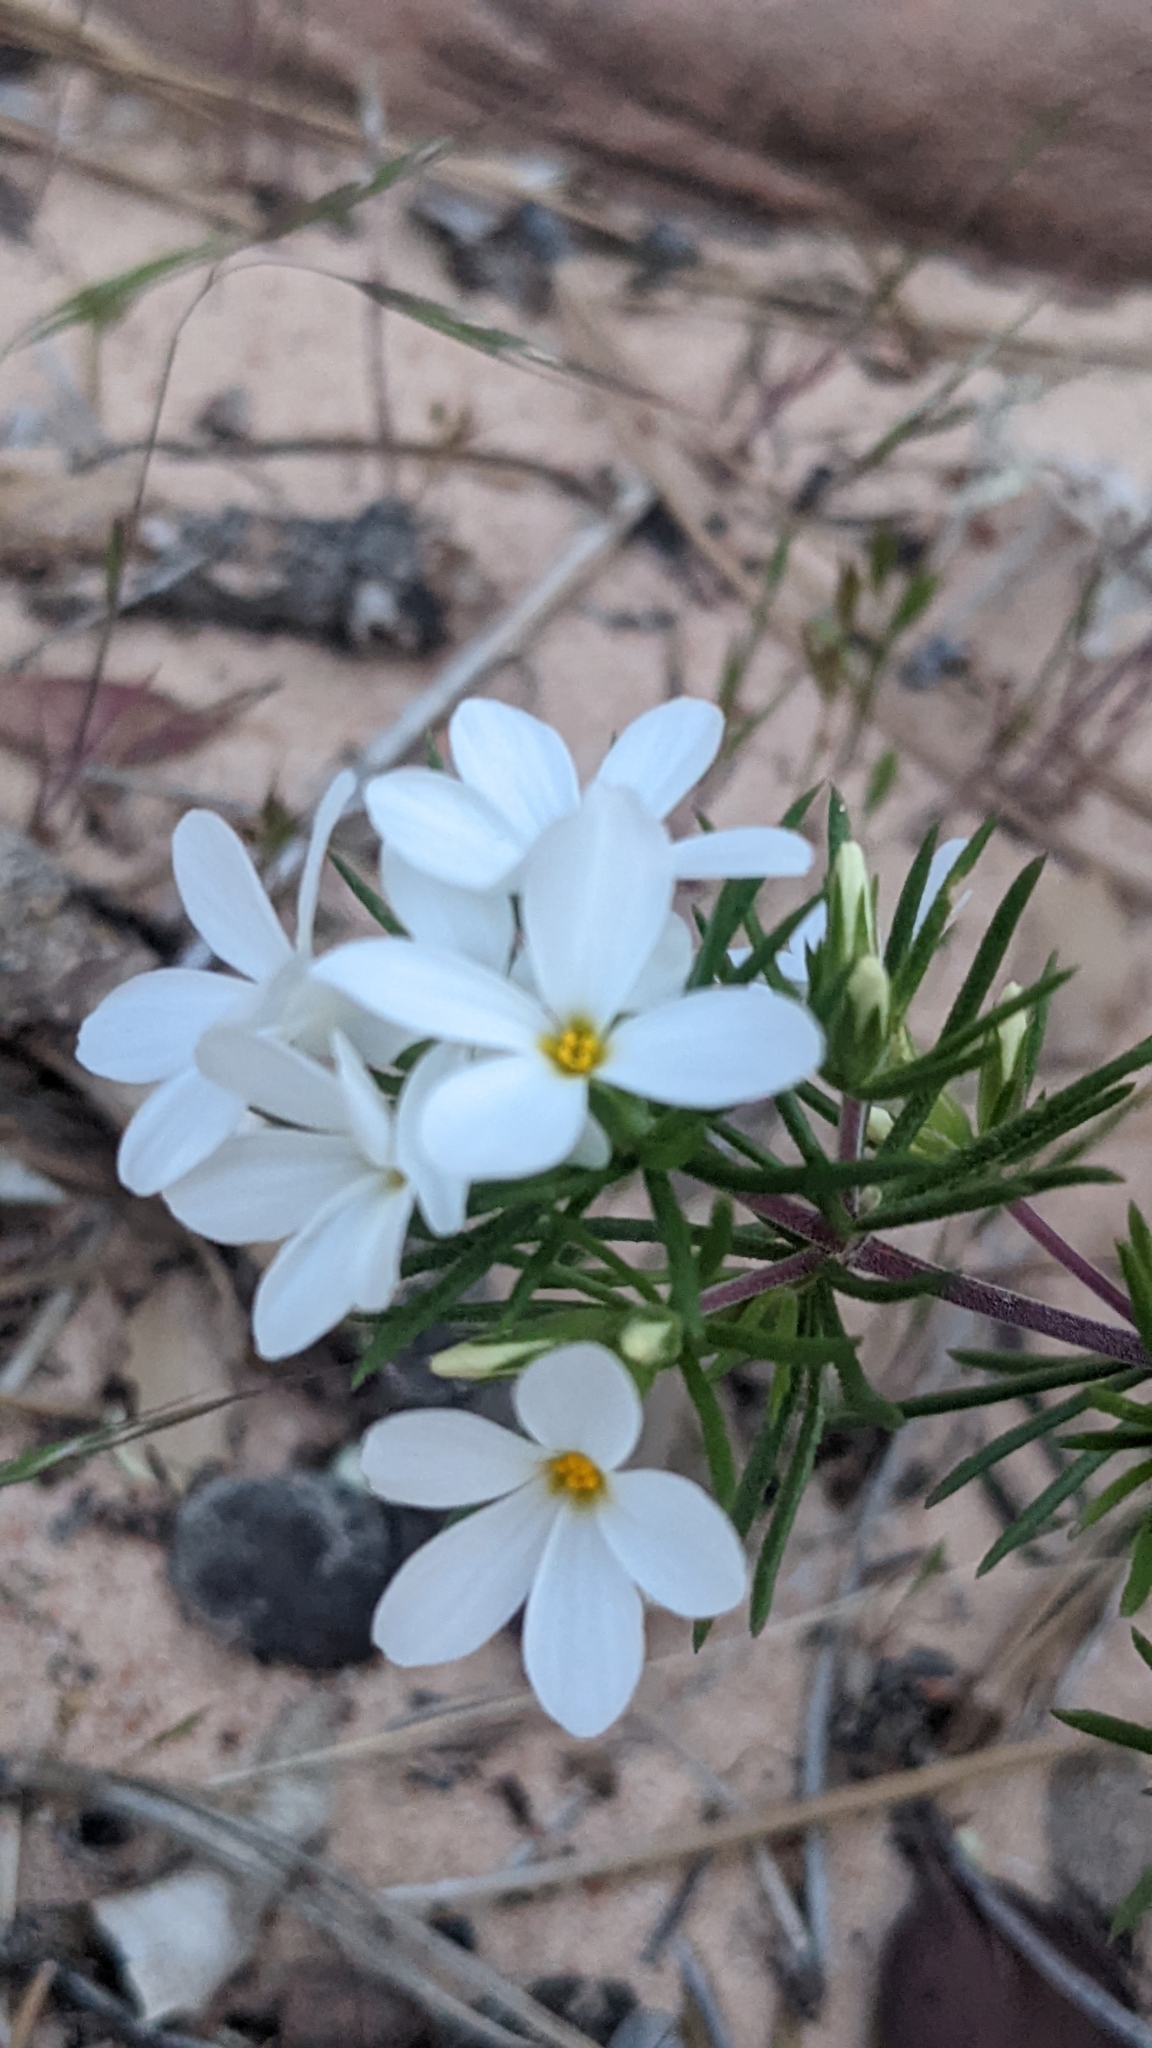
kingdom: Plantae
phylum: Tracheophyta
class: Magnoliopsida
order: Ericales
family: Polemoniaceae
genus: Leptosiphon
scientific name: Leptosiphon nuttallii
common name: Nuttall's linanthus
